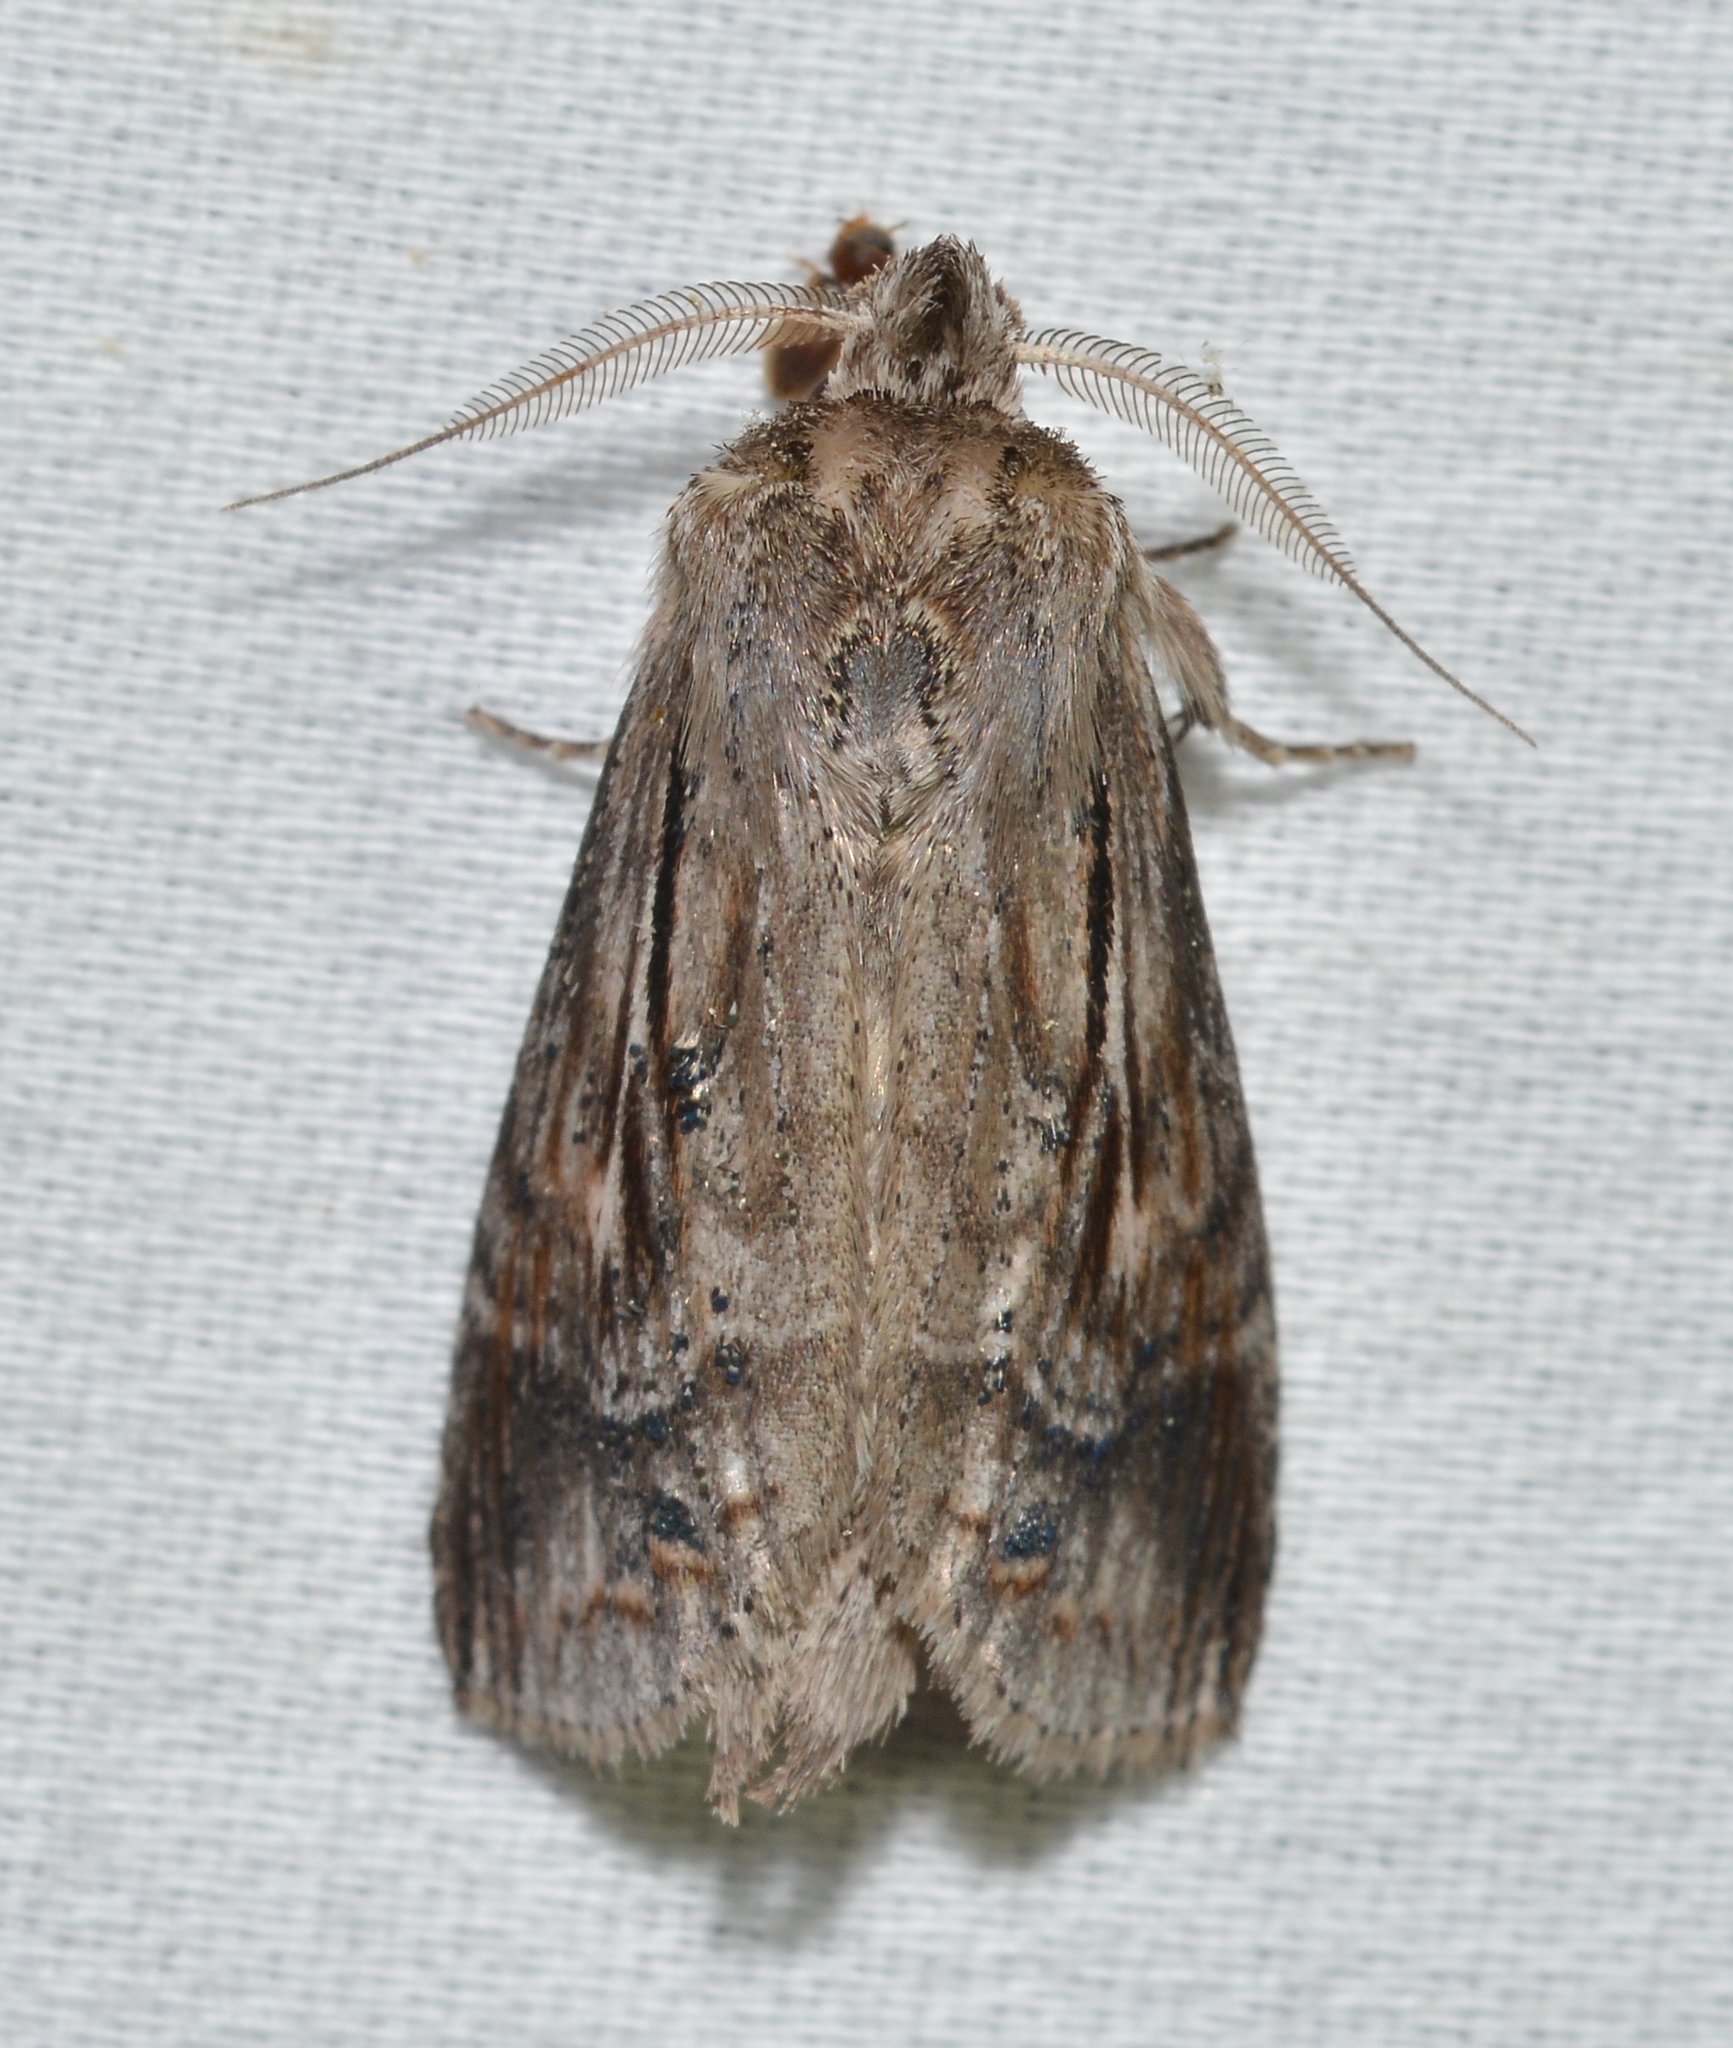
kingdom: Animalia
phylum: Arthropoda
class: Insecta
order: Lepidoptera
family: Notodontidae
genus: Dasylophia
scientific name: Dasylophia anguina
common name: Black-spotted prominent
